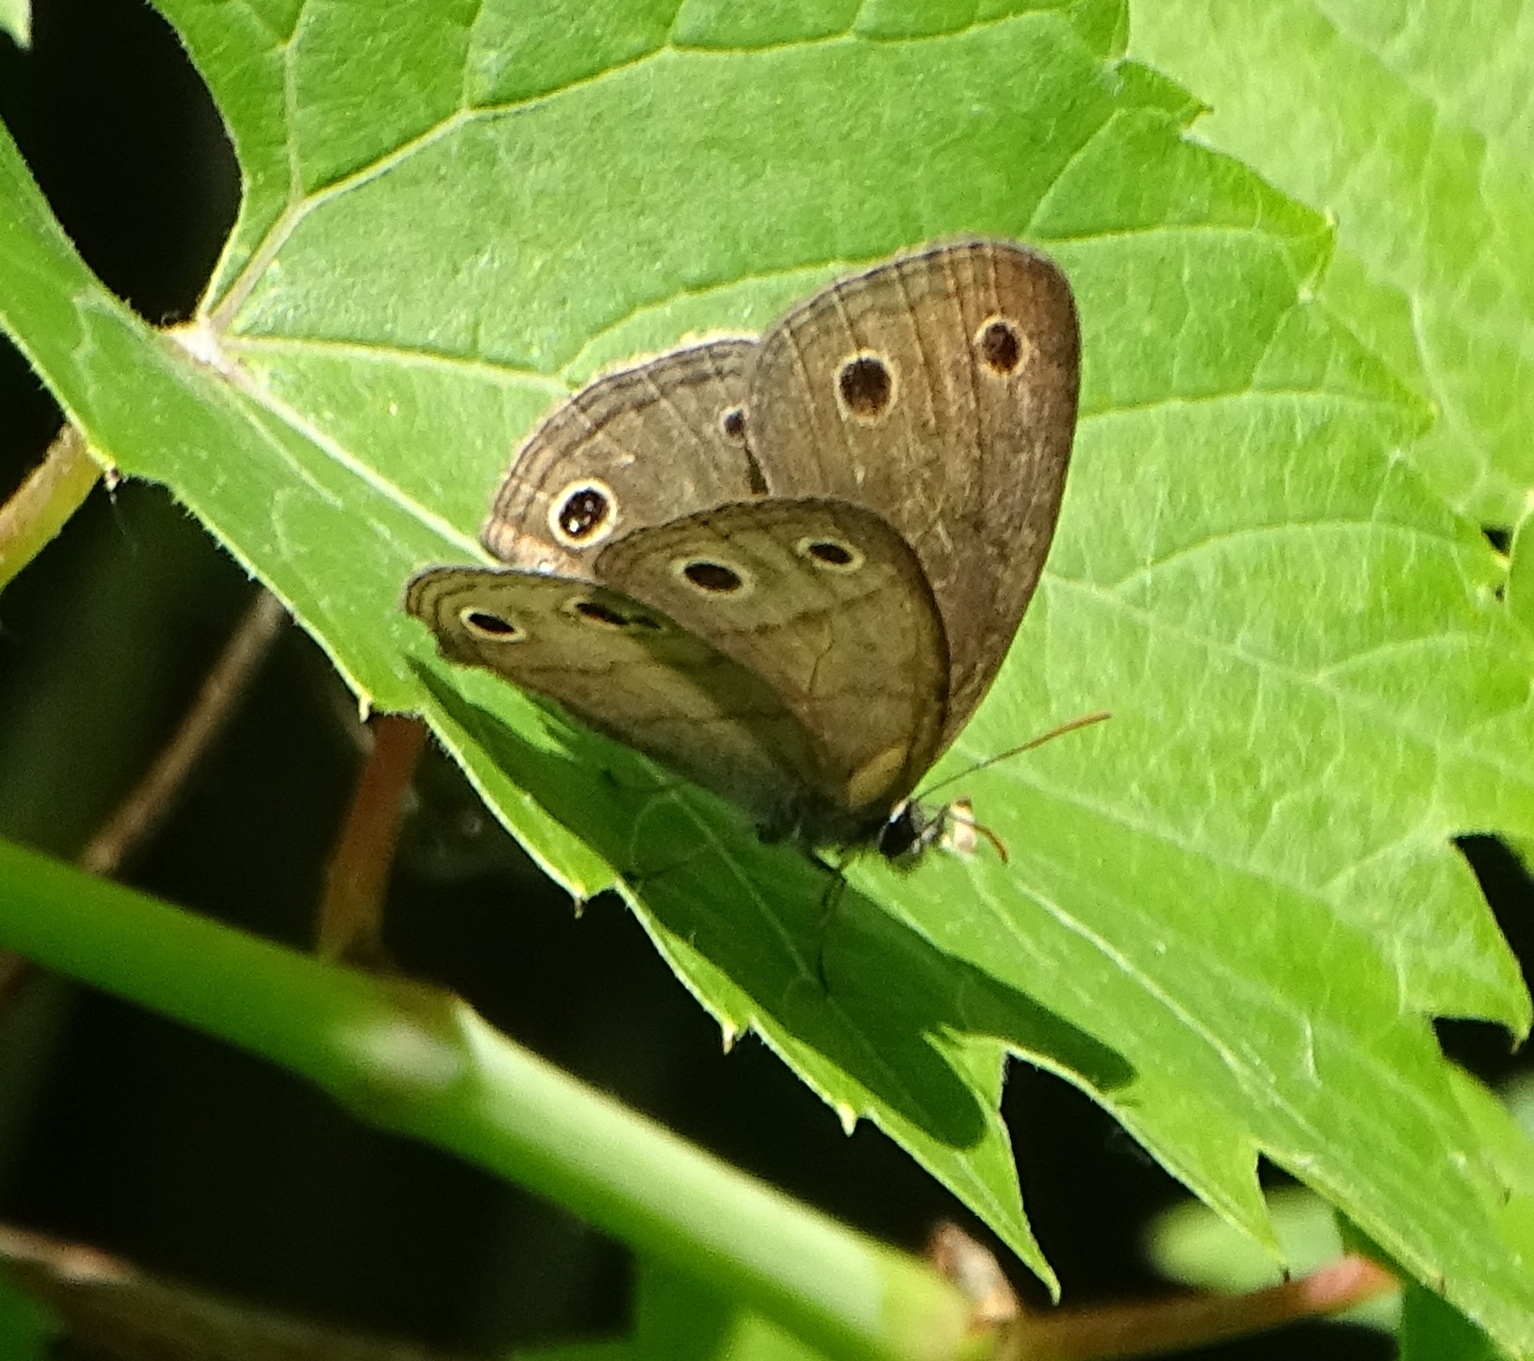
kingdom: Animalia
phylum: Arthropoda
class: Insecta
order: Lepidoptera
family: Nymphalidae
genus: Euptychia
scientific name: Euptychia cymela
